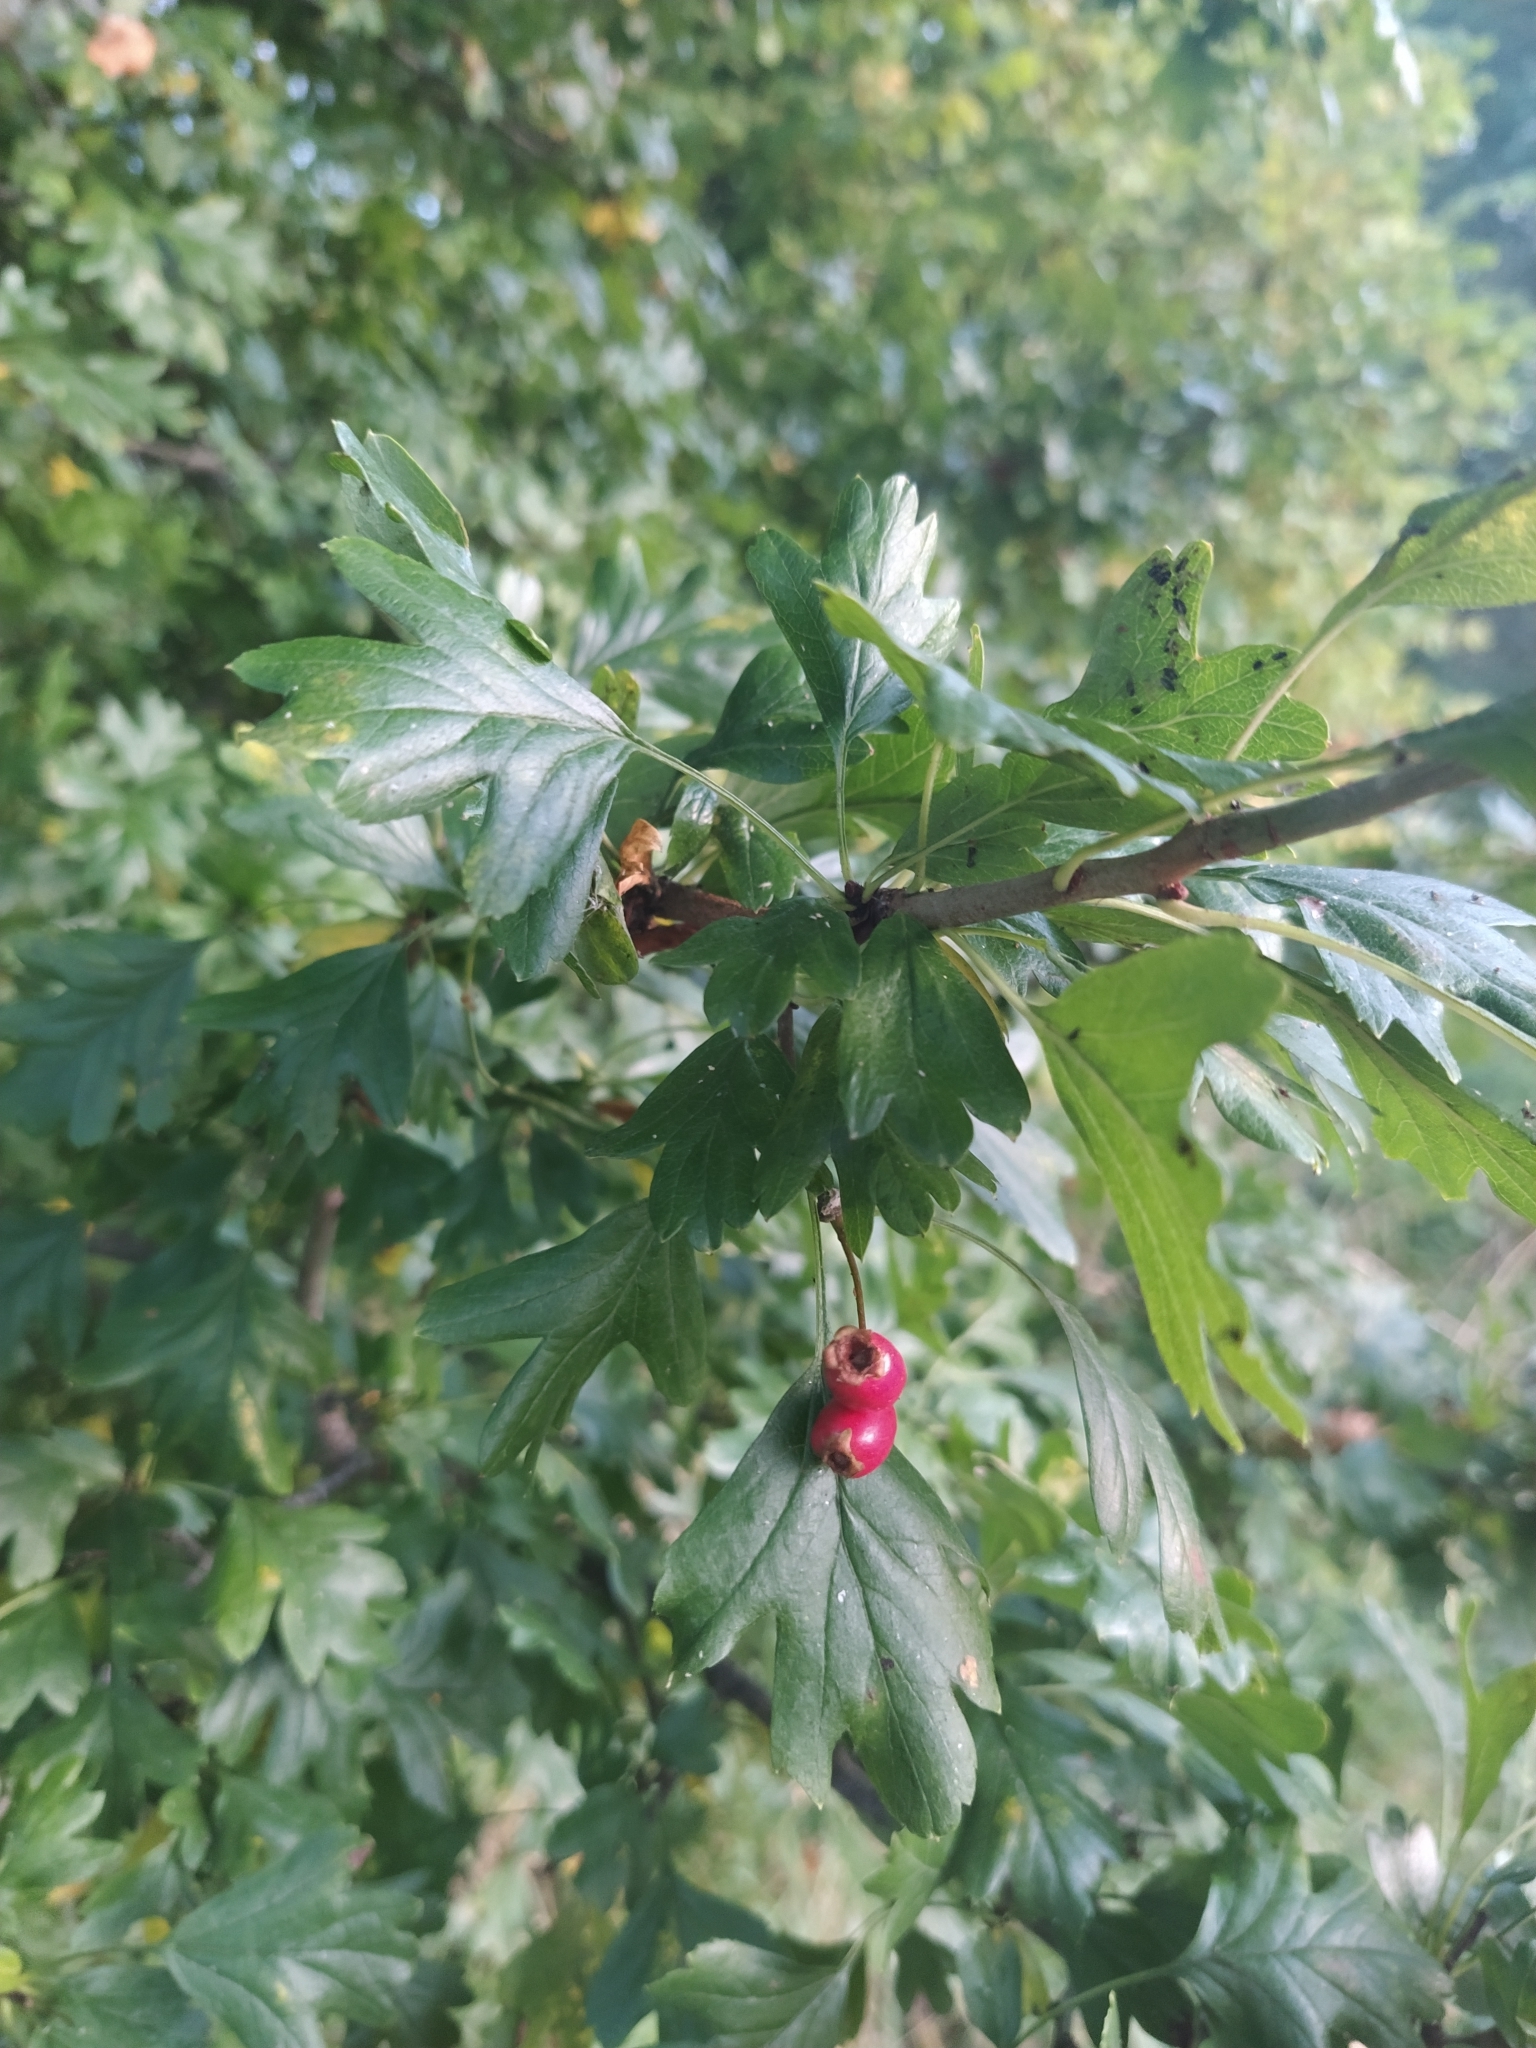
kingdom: Plantae
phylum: Tracheophyta
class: Magnoliopsida
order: Rosales
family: Rosaceae
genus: Crataegus
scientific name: Crataegus monogyna
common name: Hawthorn
